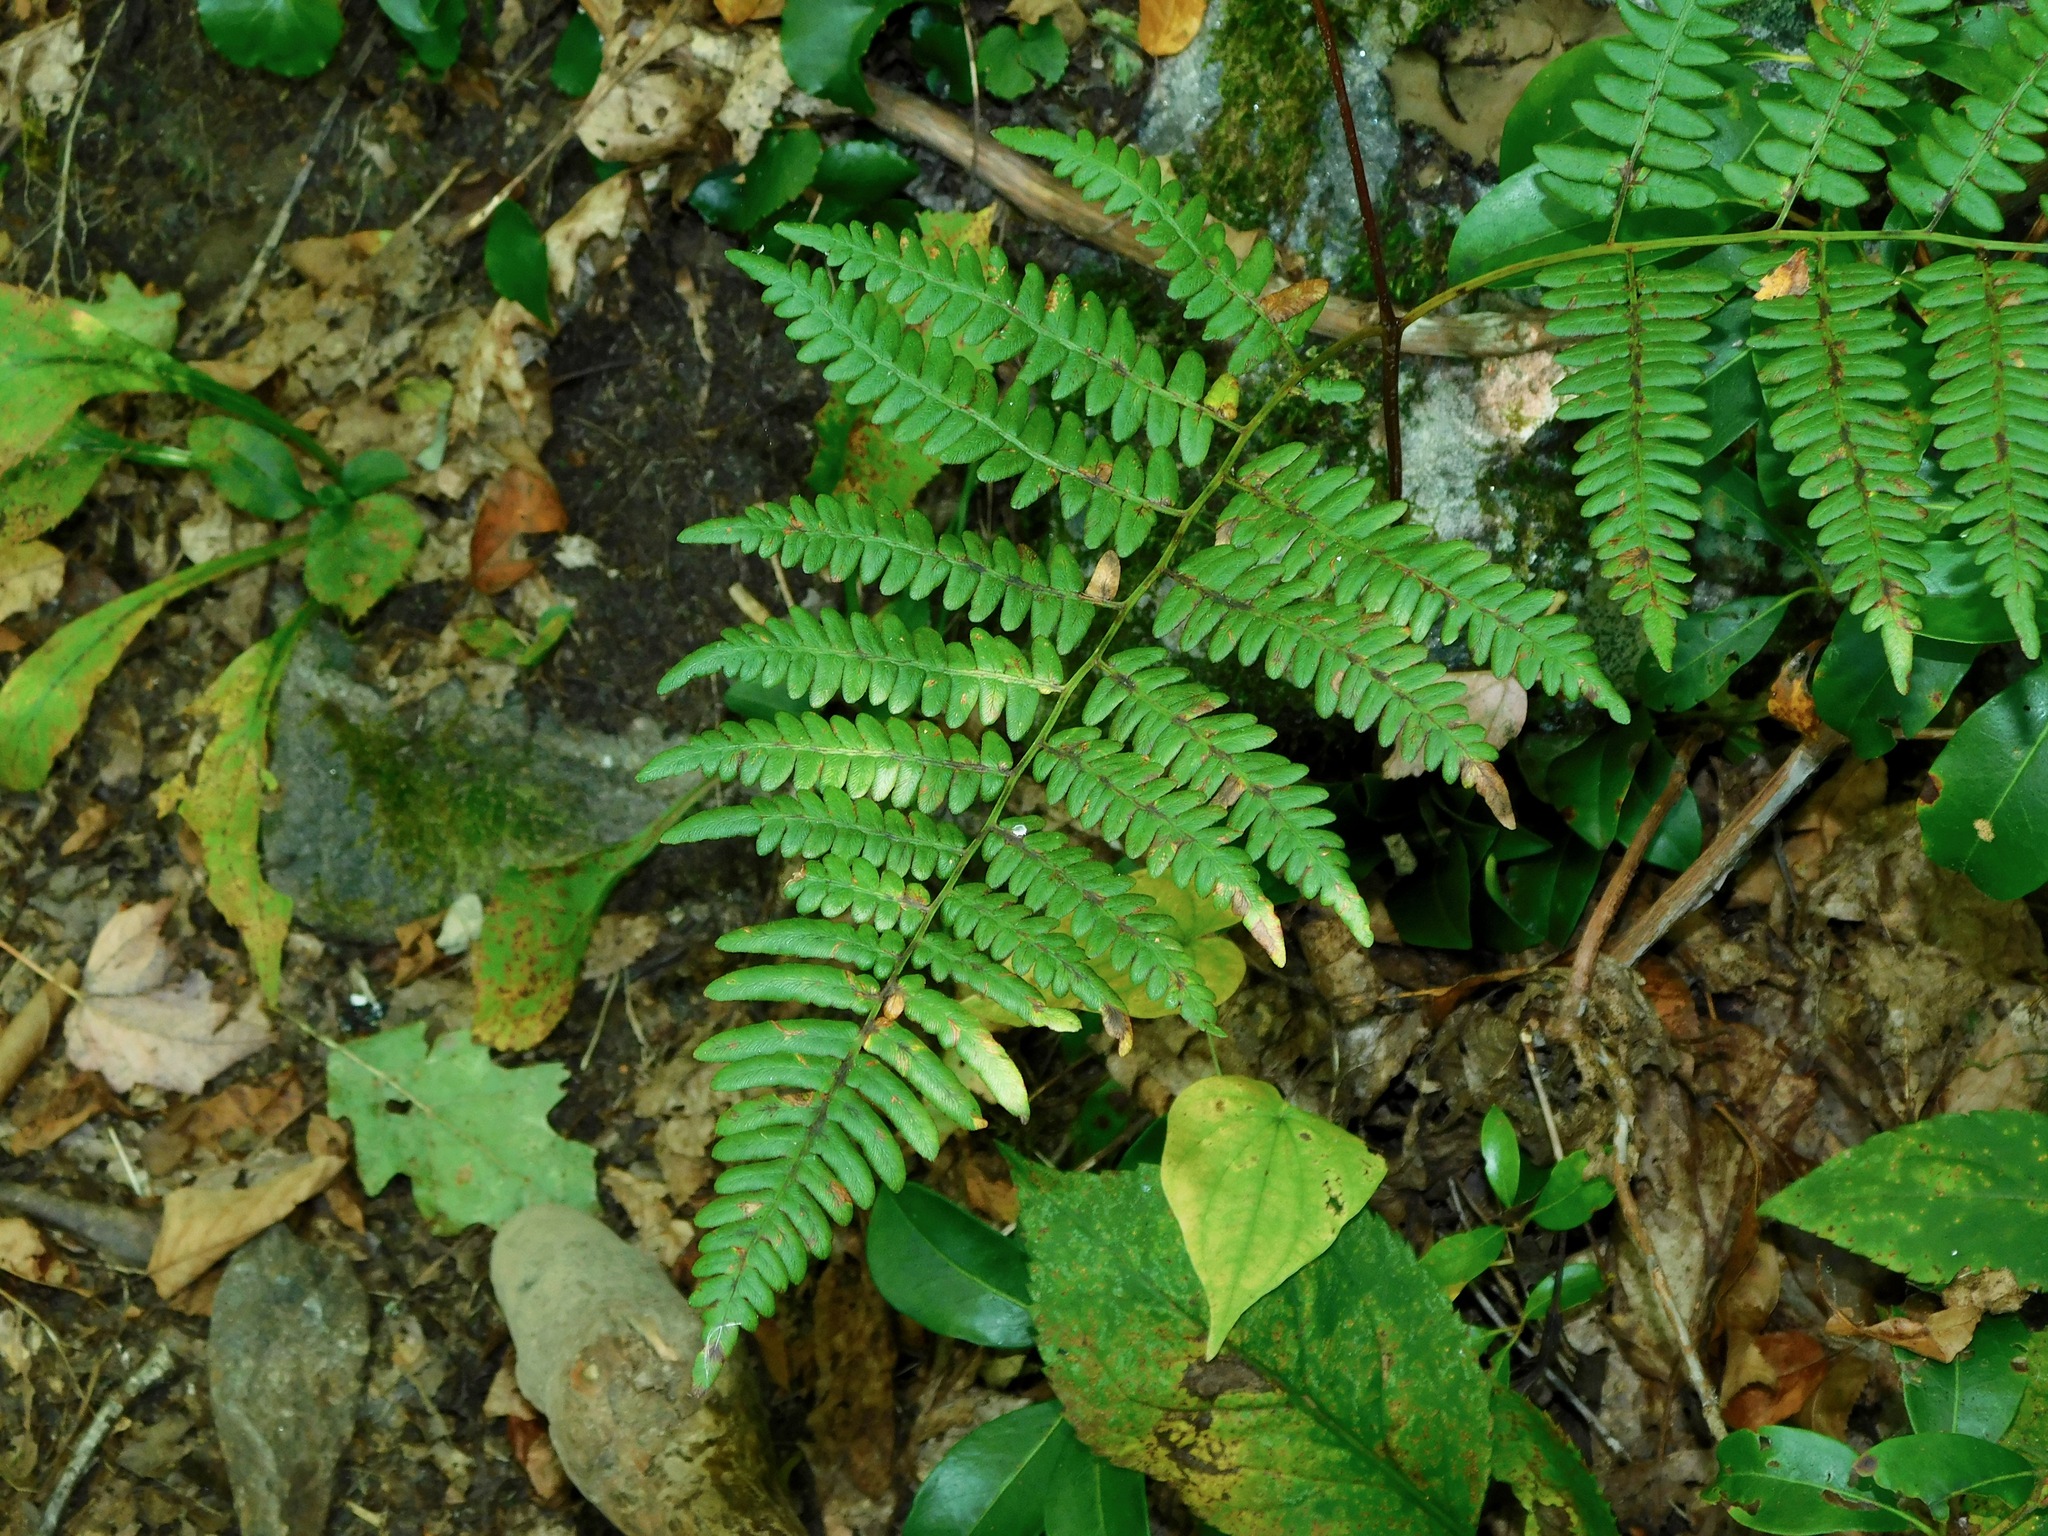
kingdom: Plantae
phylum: Tracheophyta
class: Polypodiopsida
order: Polypodiales
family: Dennstaedtiaceae
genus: Pteridium
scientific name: Pteridium aquilinum
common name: Bracken
